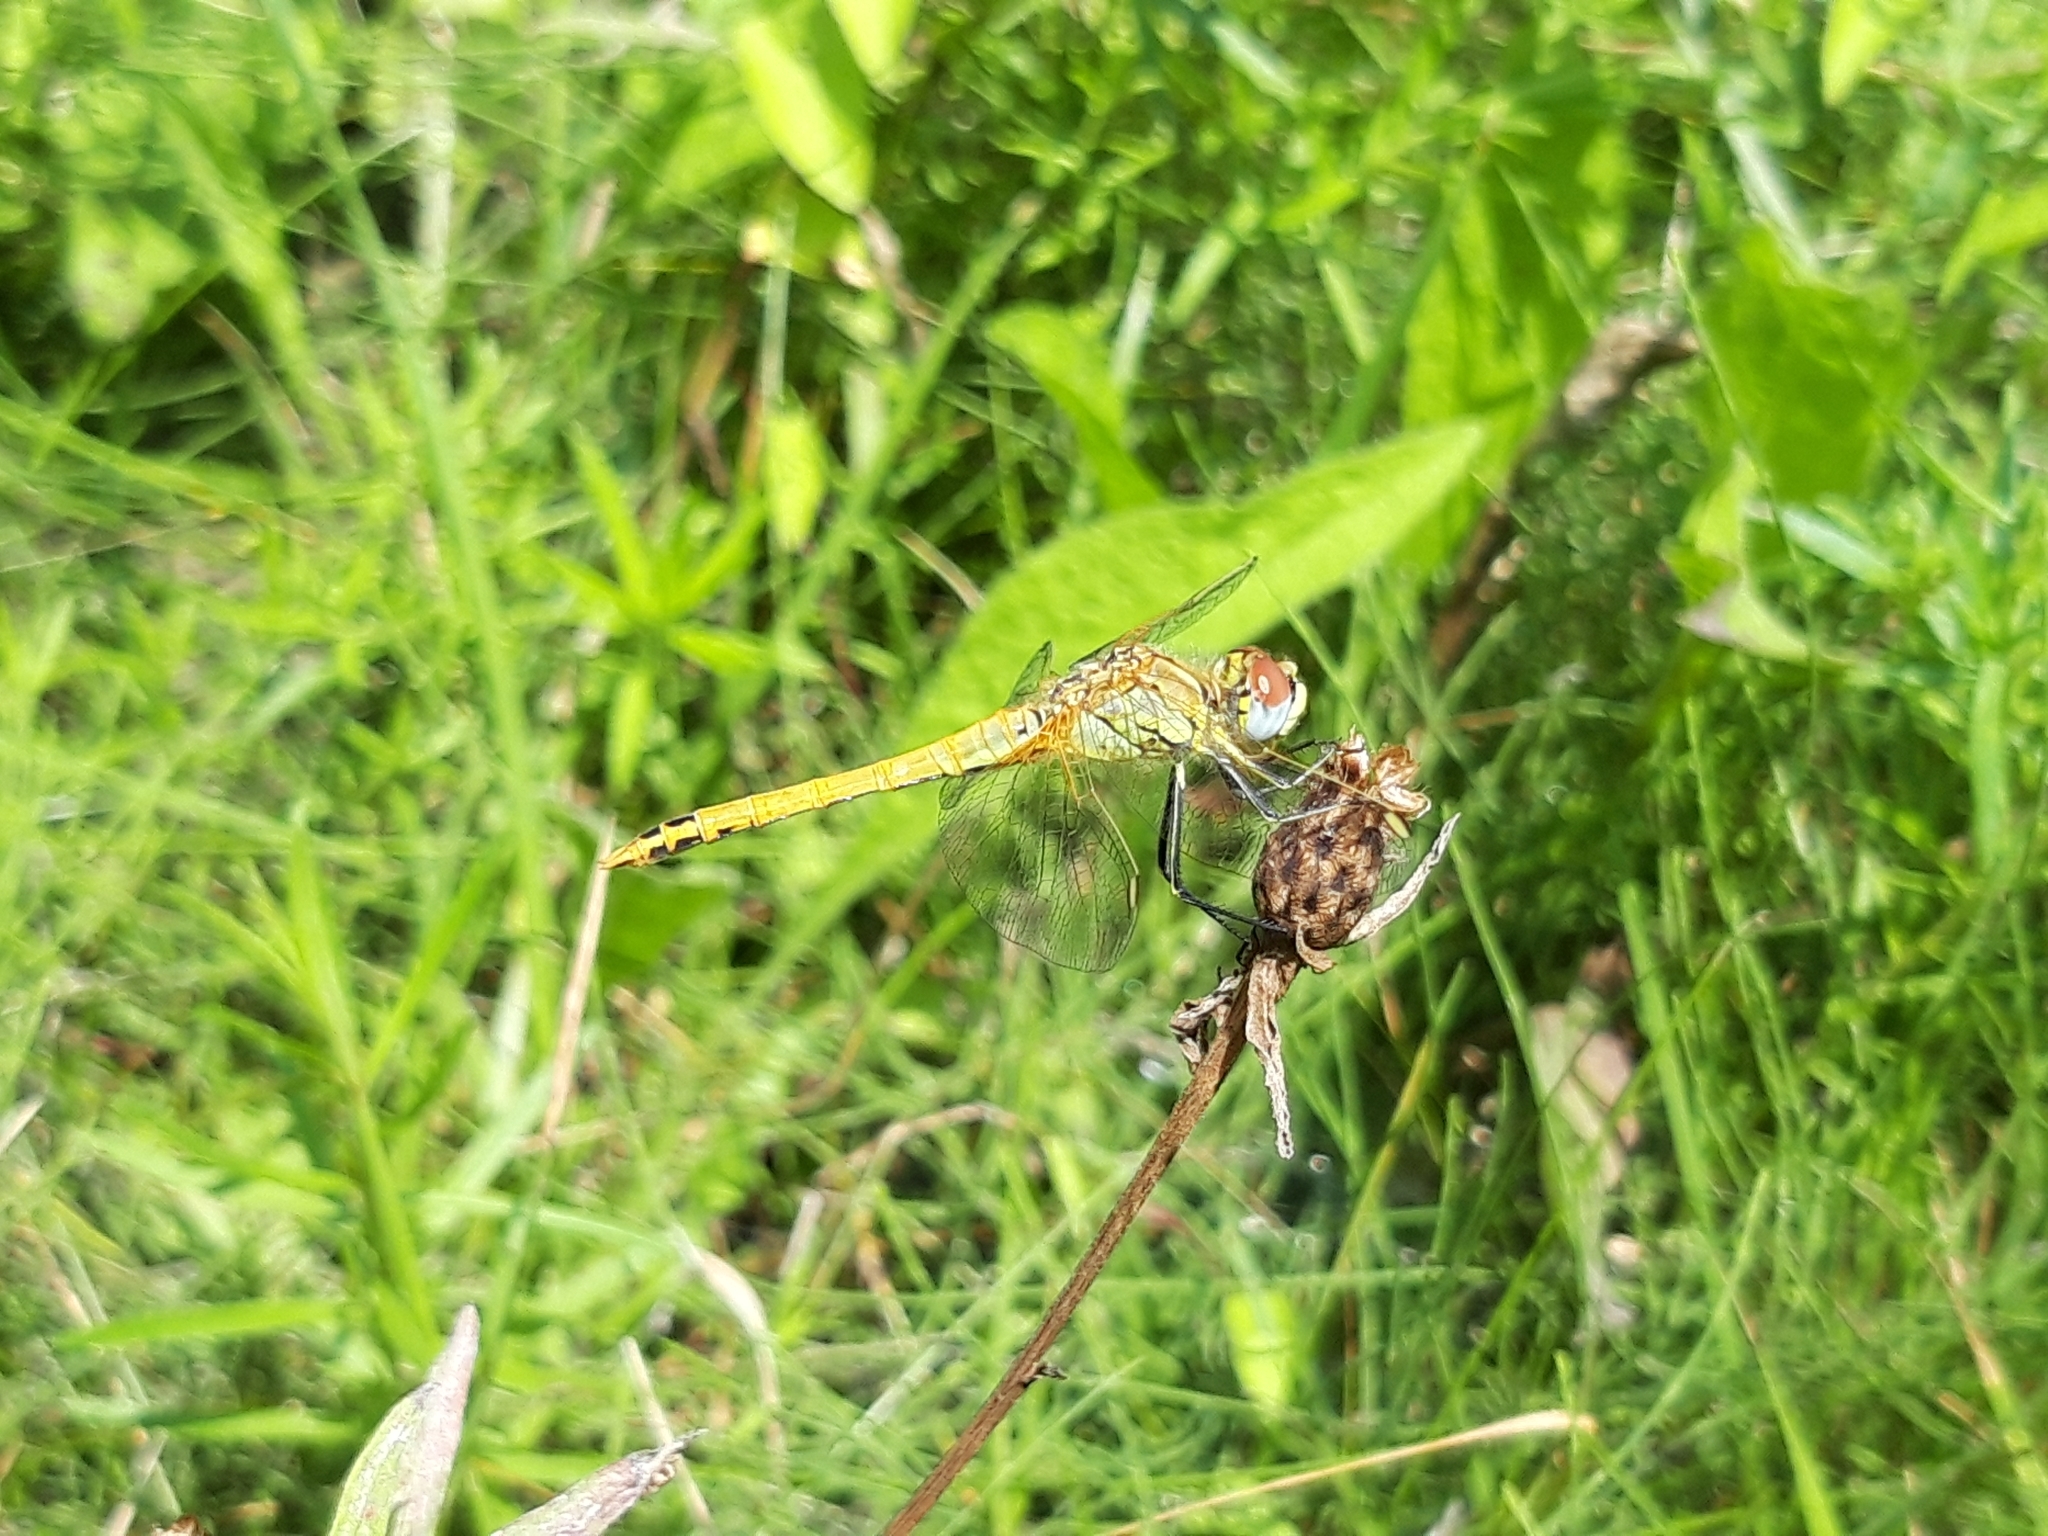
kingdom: Animalia
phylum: Arthropoda
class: Insecta
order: Odonata
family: Libellulidae
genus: Sympetrum
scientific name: Sympetrum fonscolombii
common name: Red-veined darter
